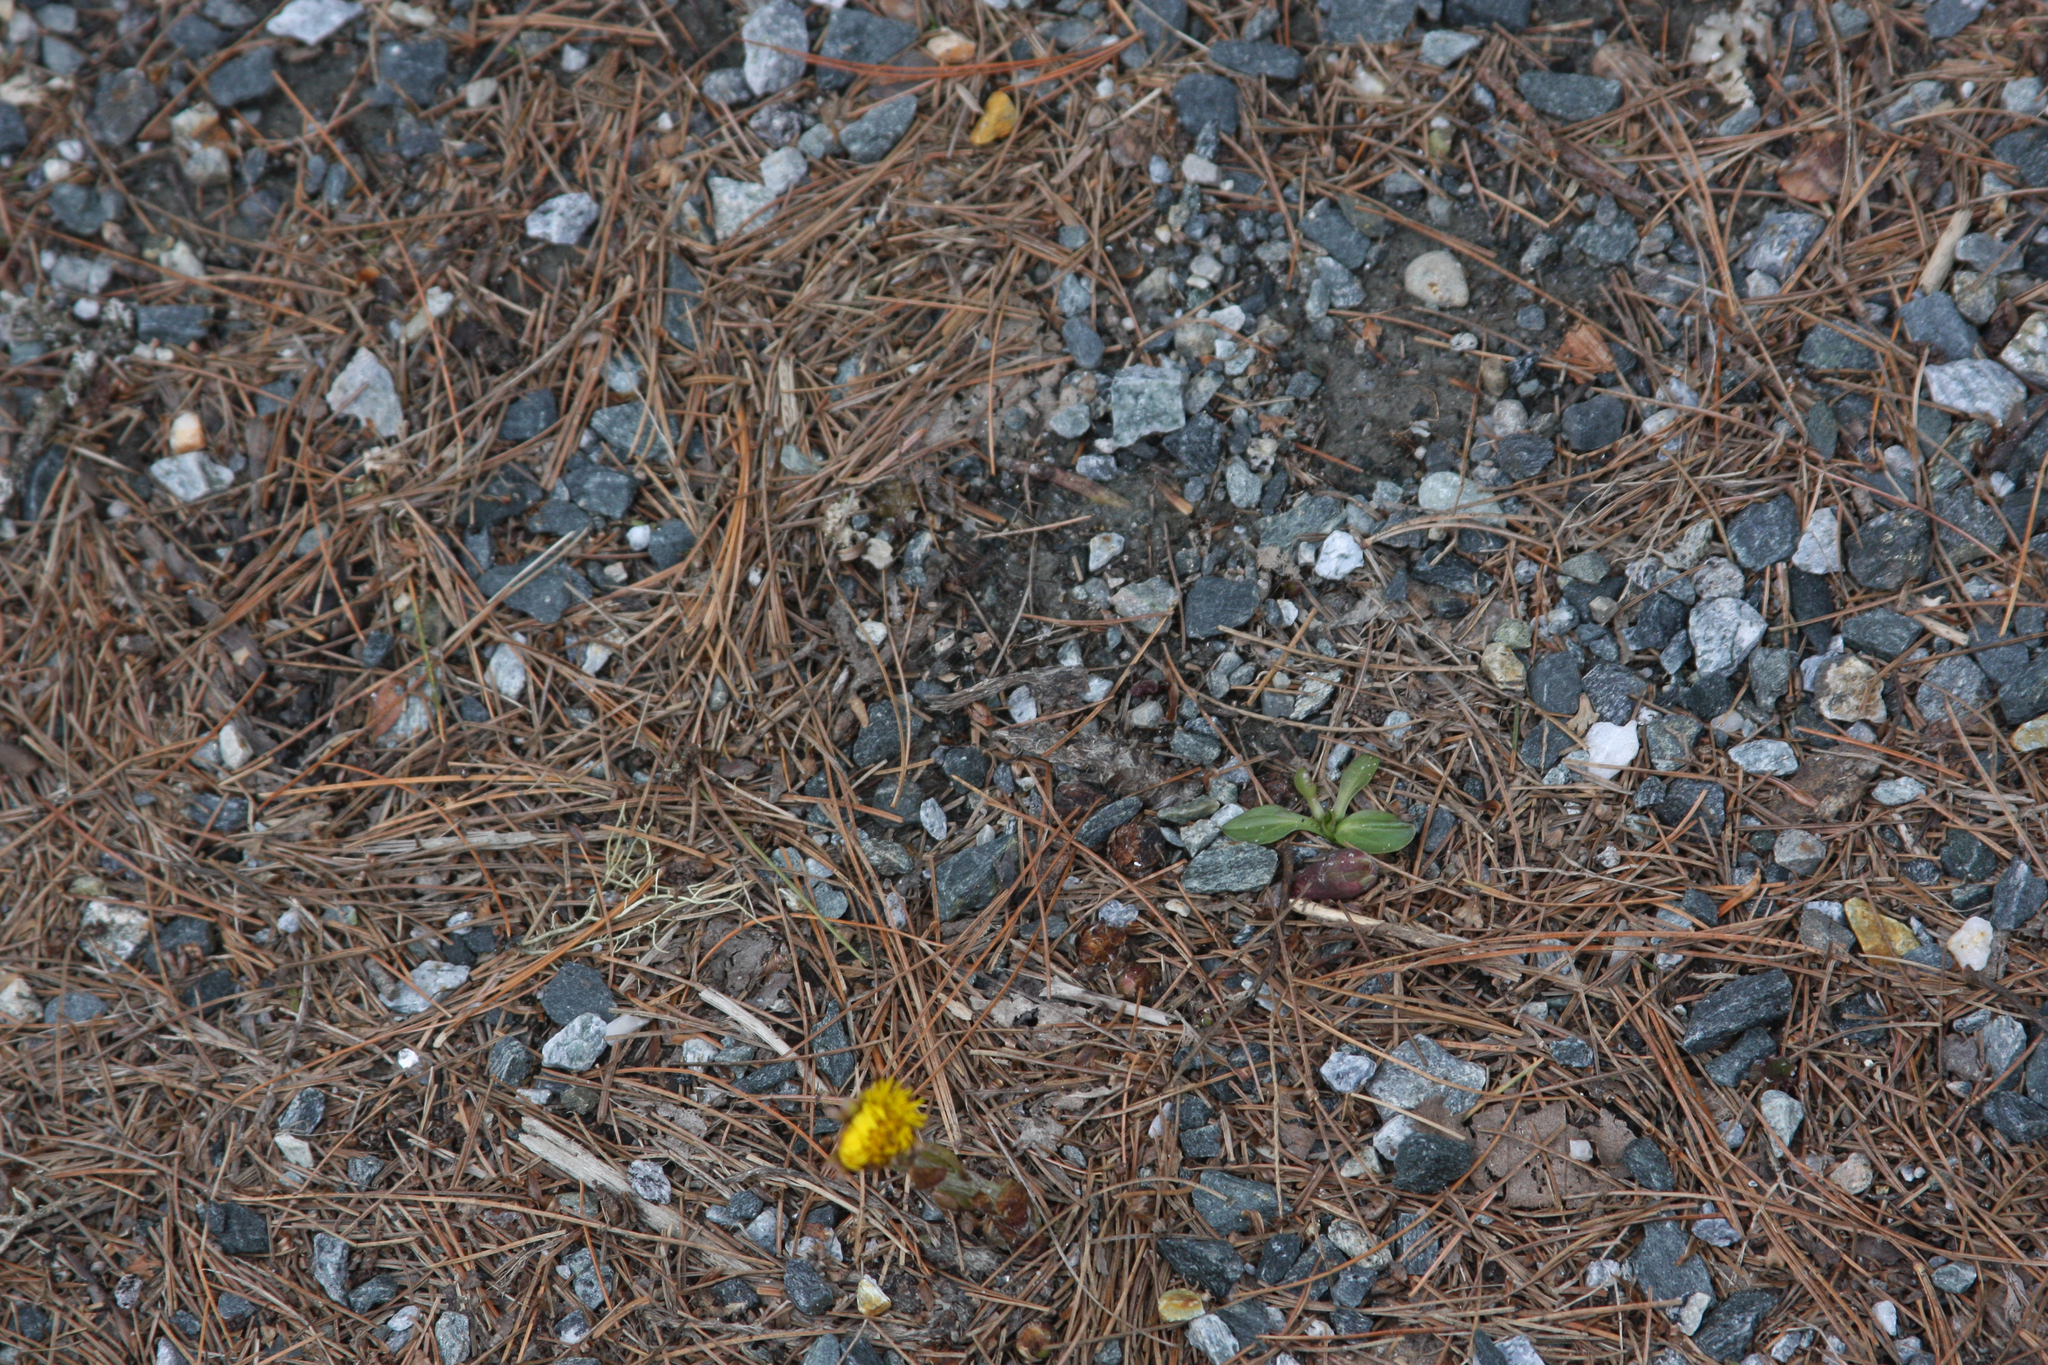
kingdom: Plantae
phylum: Tracheophyta
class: Magnoliopsida
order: Asterales
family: Asteraceae
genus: Tussilago
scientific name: Tussilago farfara
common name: Coltsfoot
